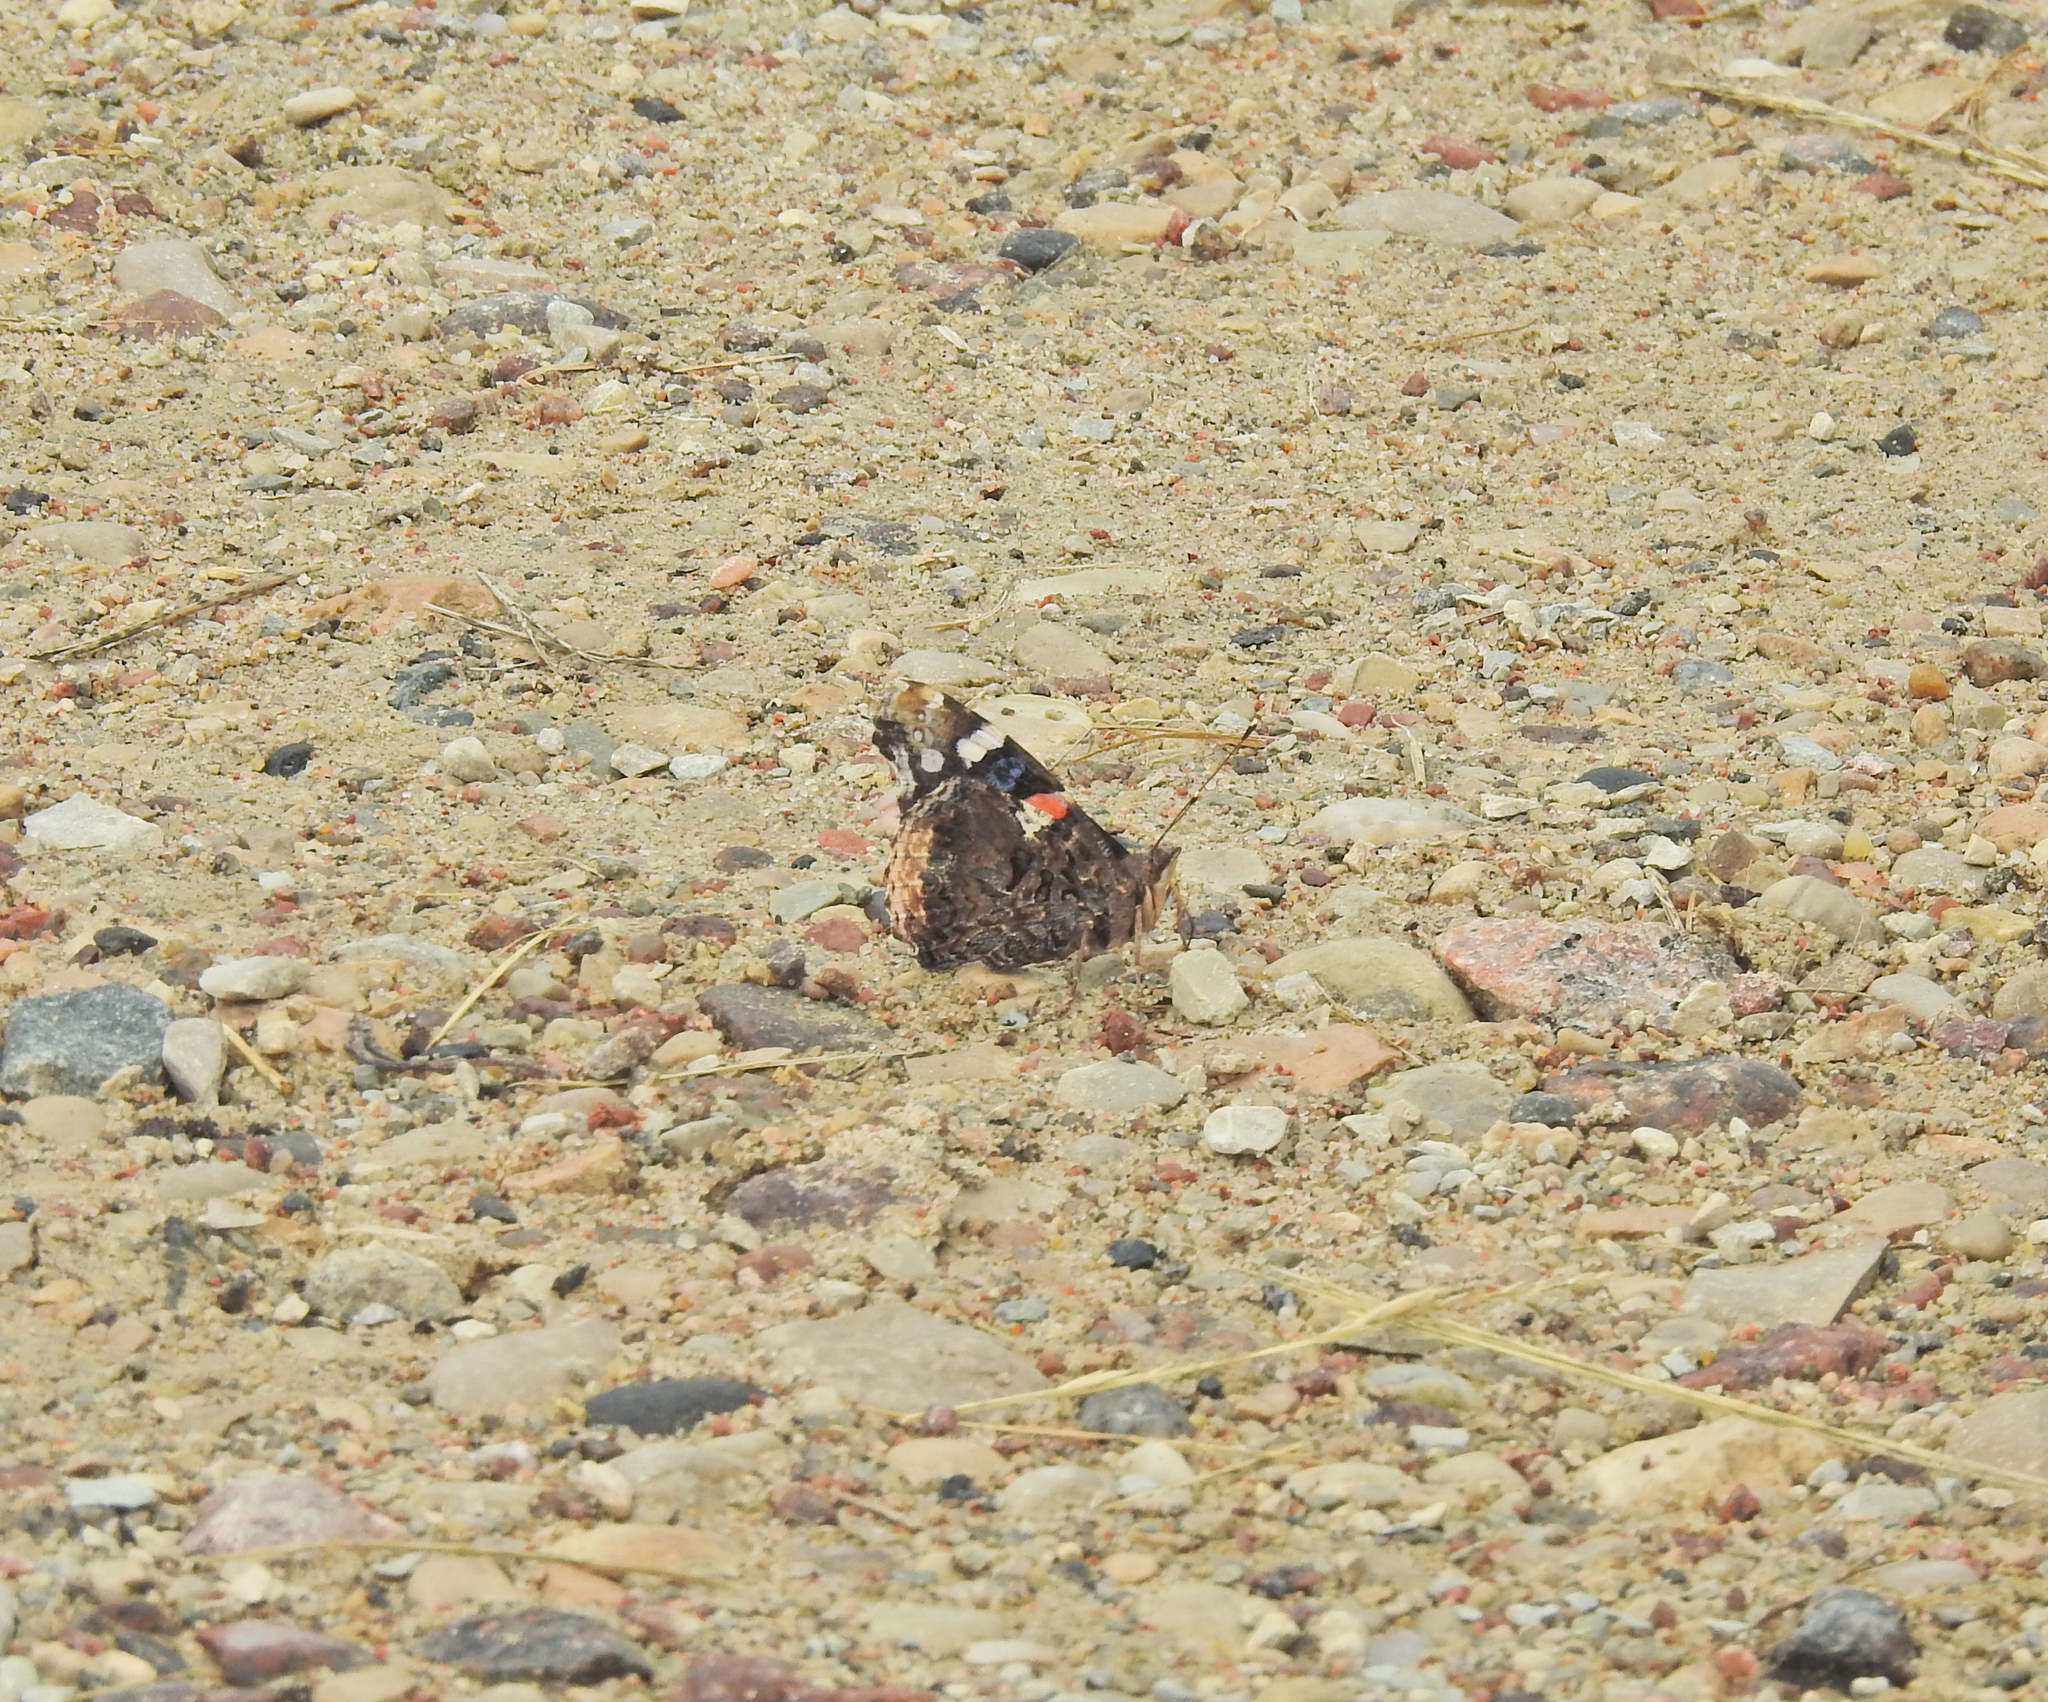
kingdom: Animalia
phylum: Arthropoda
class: Insecta
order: Lepidoptera
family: Nymphalidae
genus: Vanessa
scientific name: Vanessa atalanta
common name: Red admiral
